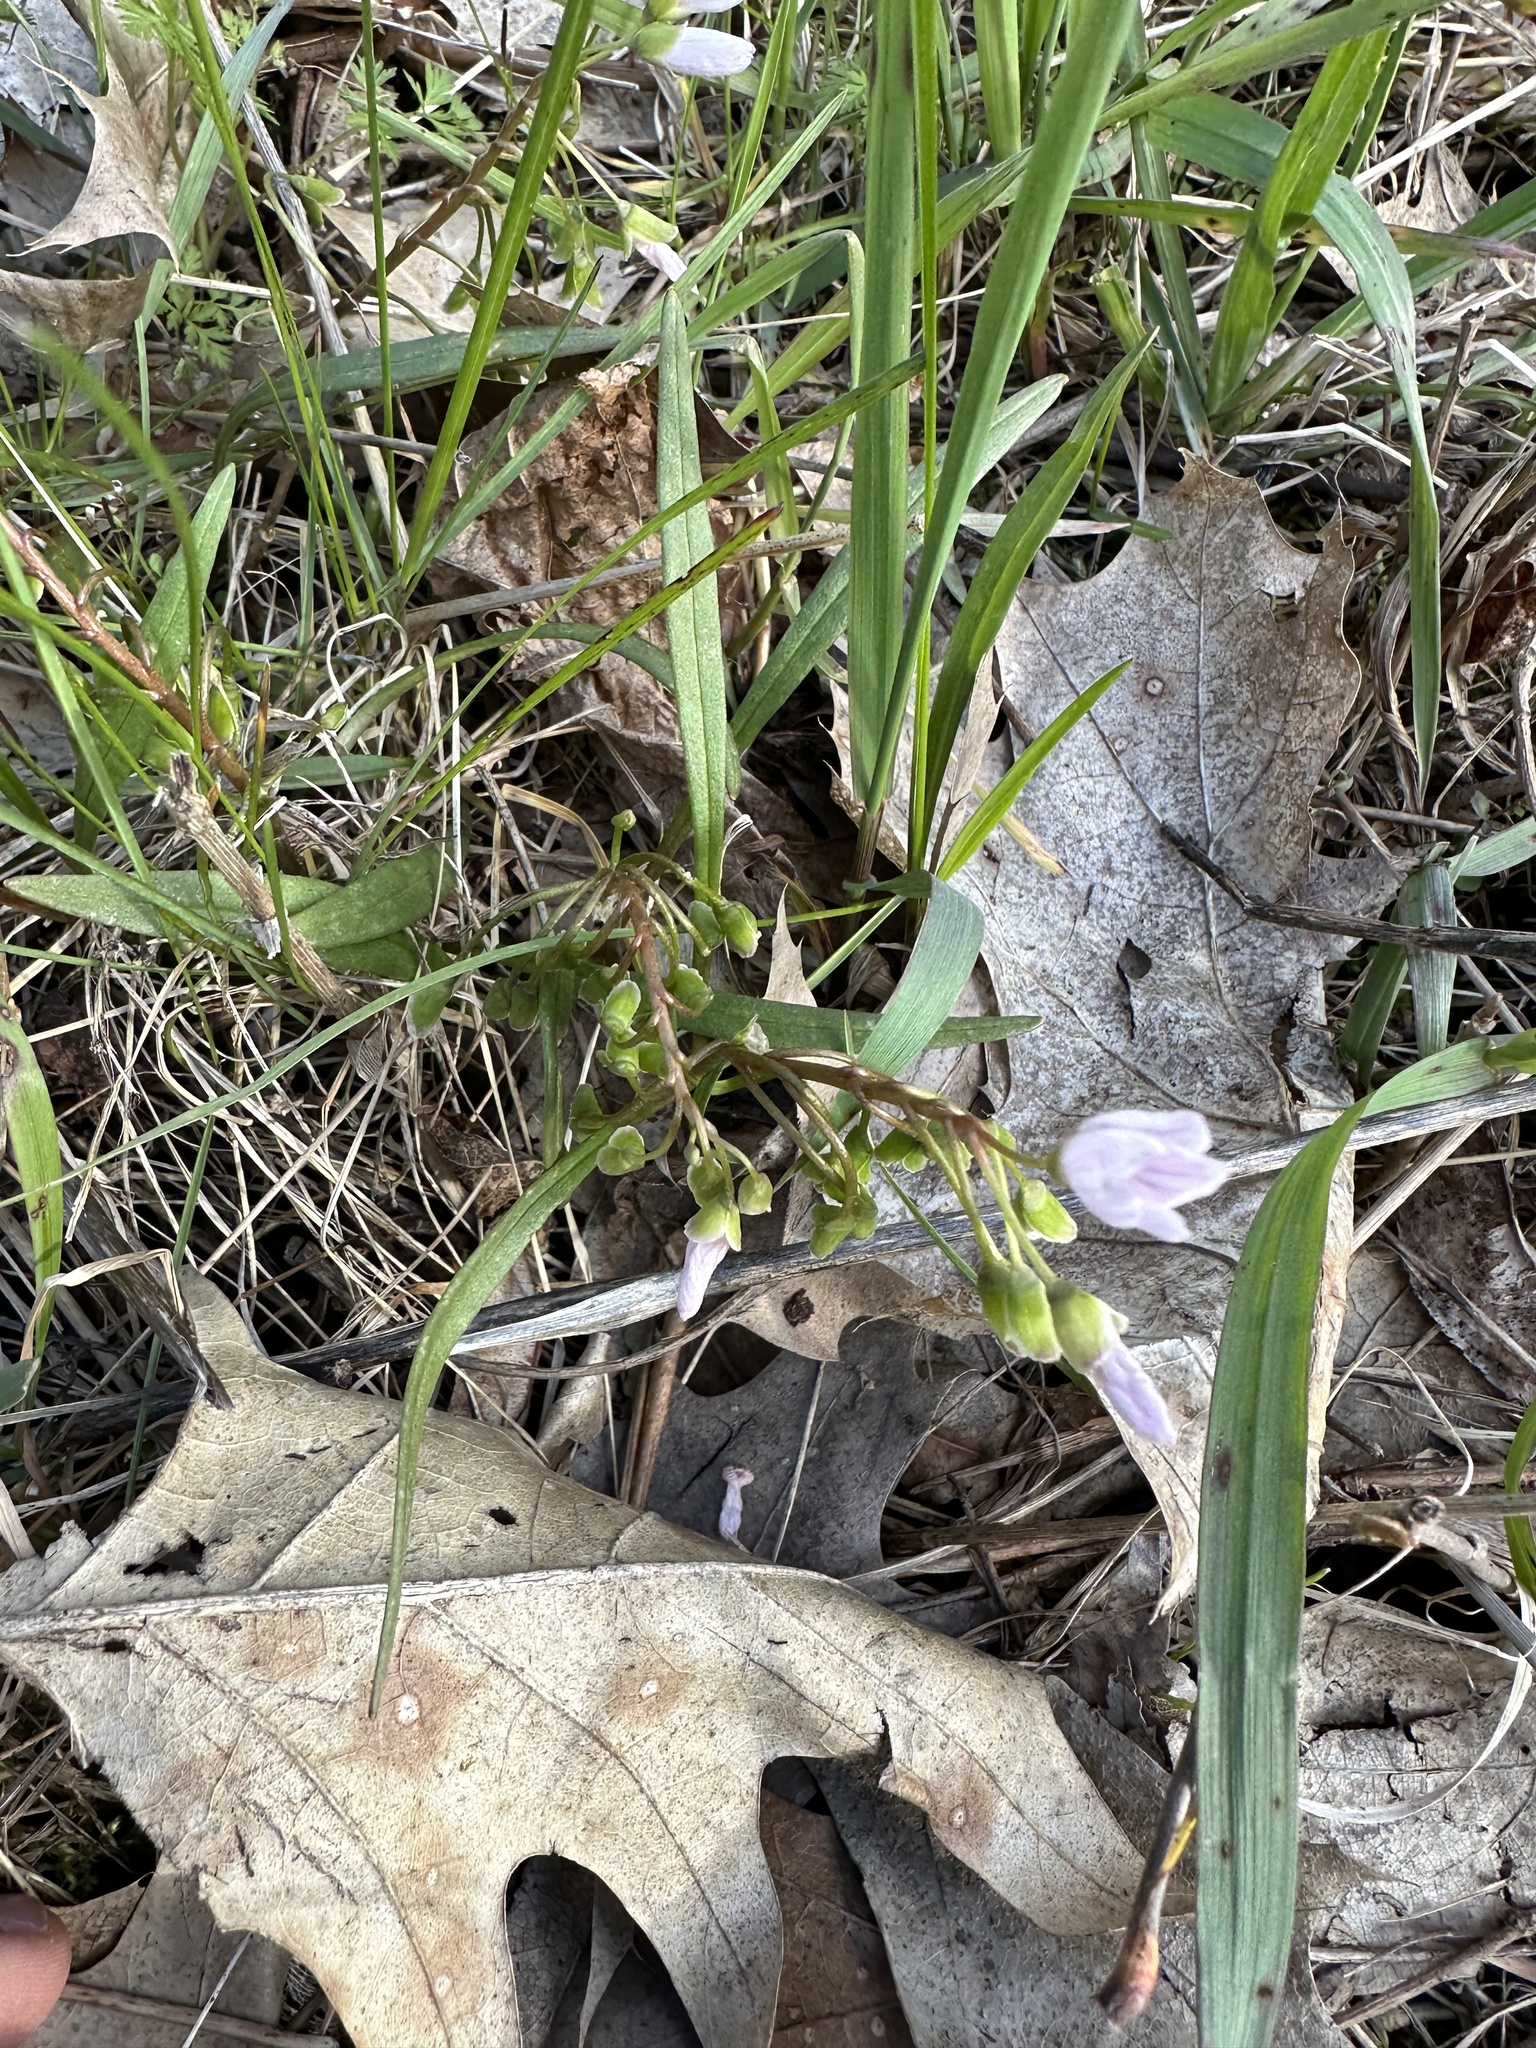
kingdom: Plantae
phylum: Tracheophyta
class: Magnoliopsida
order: Caryophyllales
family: Montiaceae
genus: Claytonia
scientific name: Claytonia virginica
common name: Virginia springbeauty
